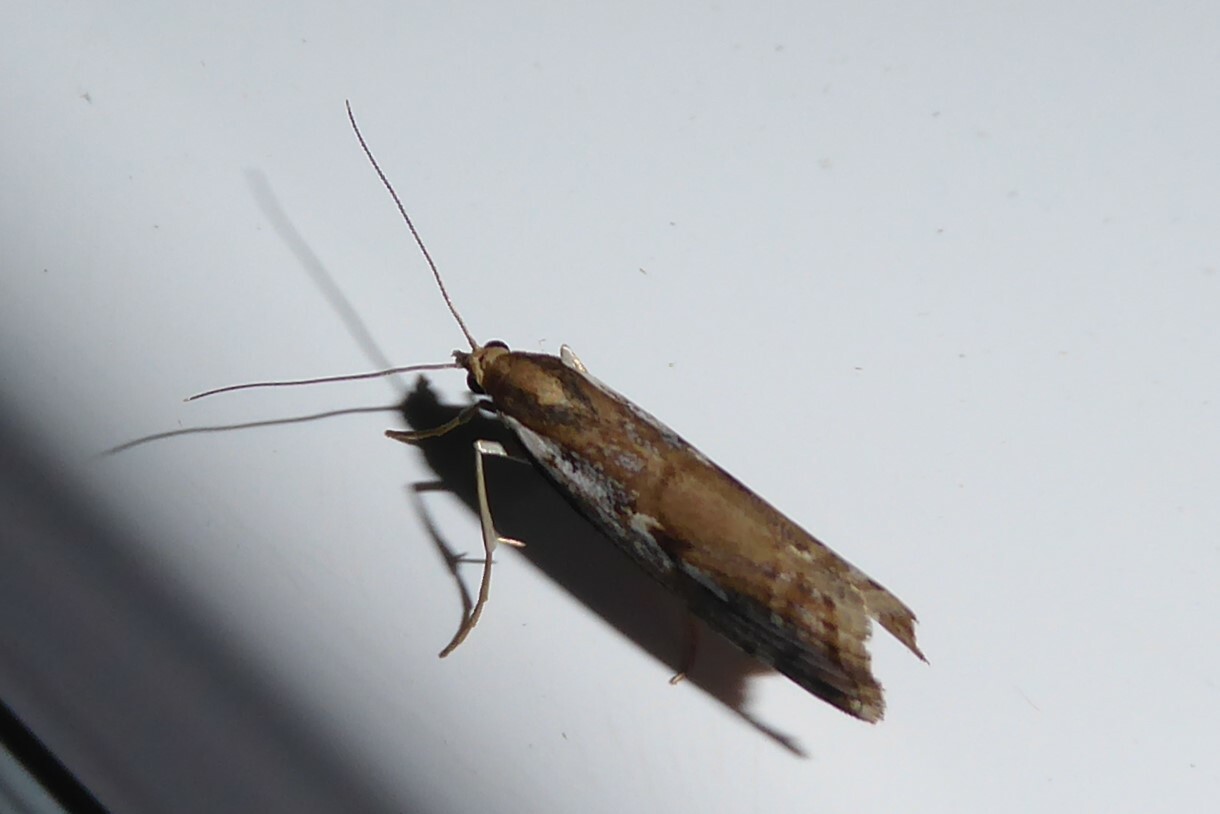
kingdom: Animalia
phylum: Arthropoda
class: Insecta
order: Lepidoptera
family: Crambidae
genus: Orocrambus
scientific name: Orocrambus vulgaris
